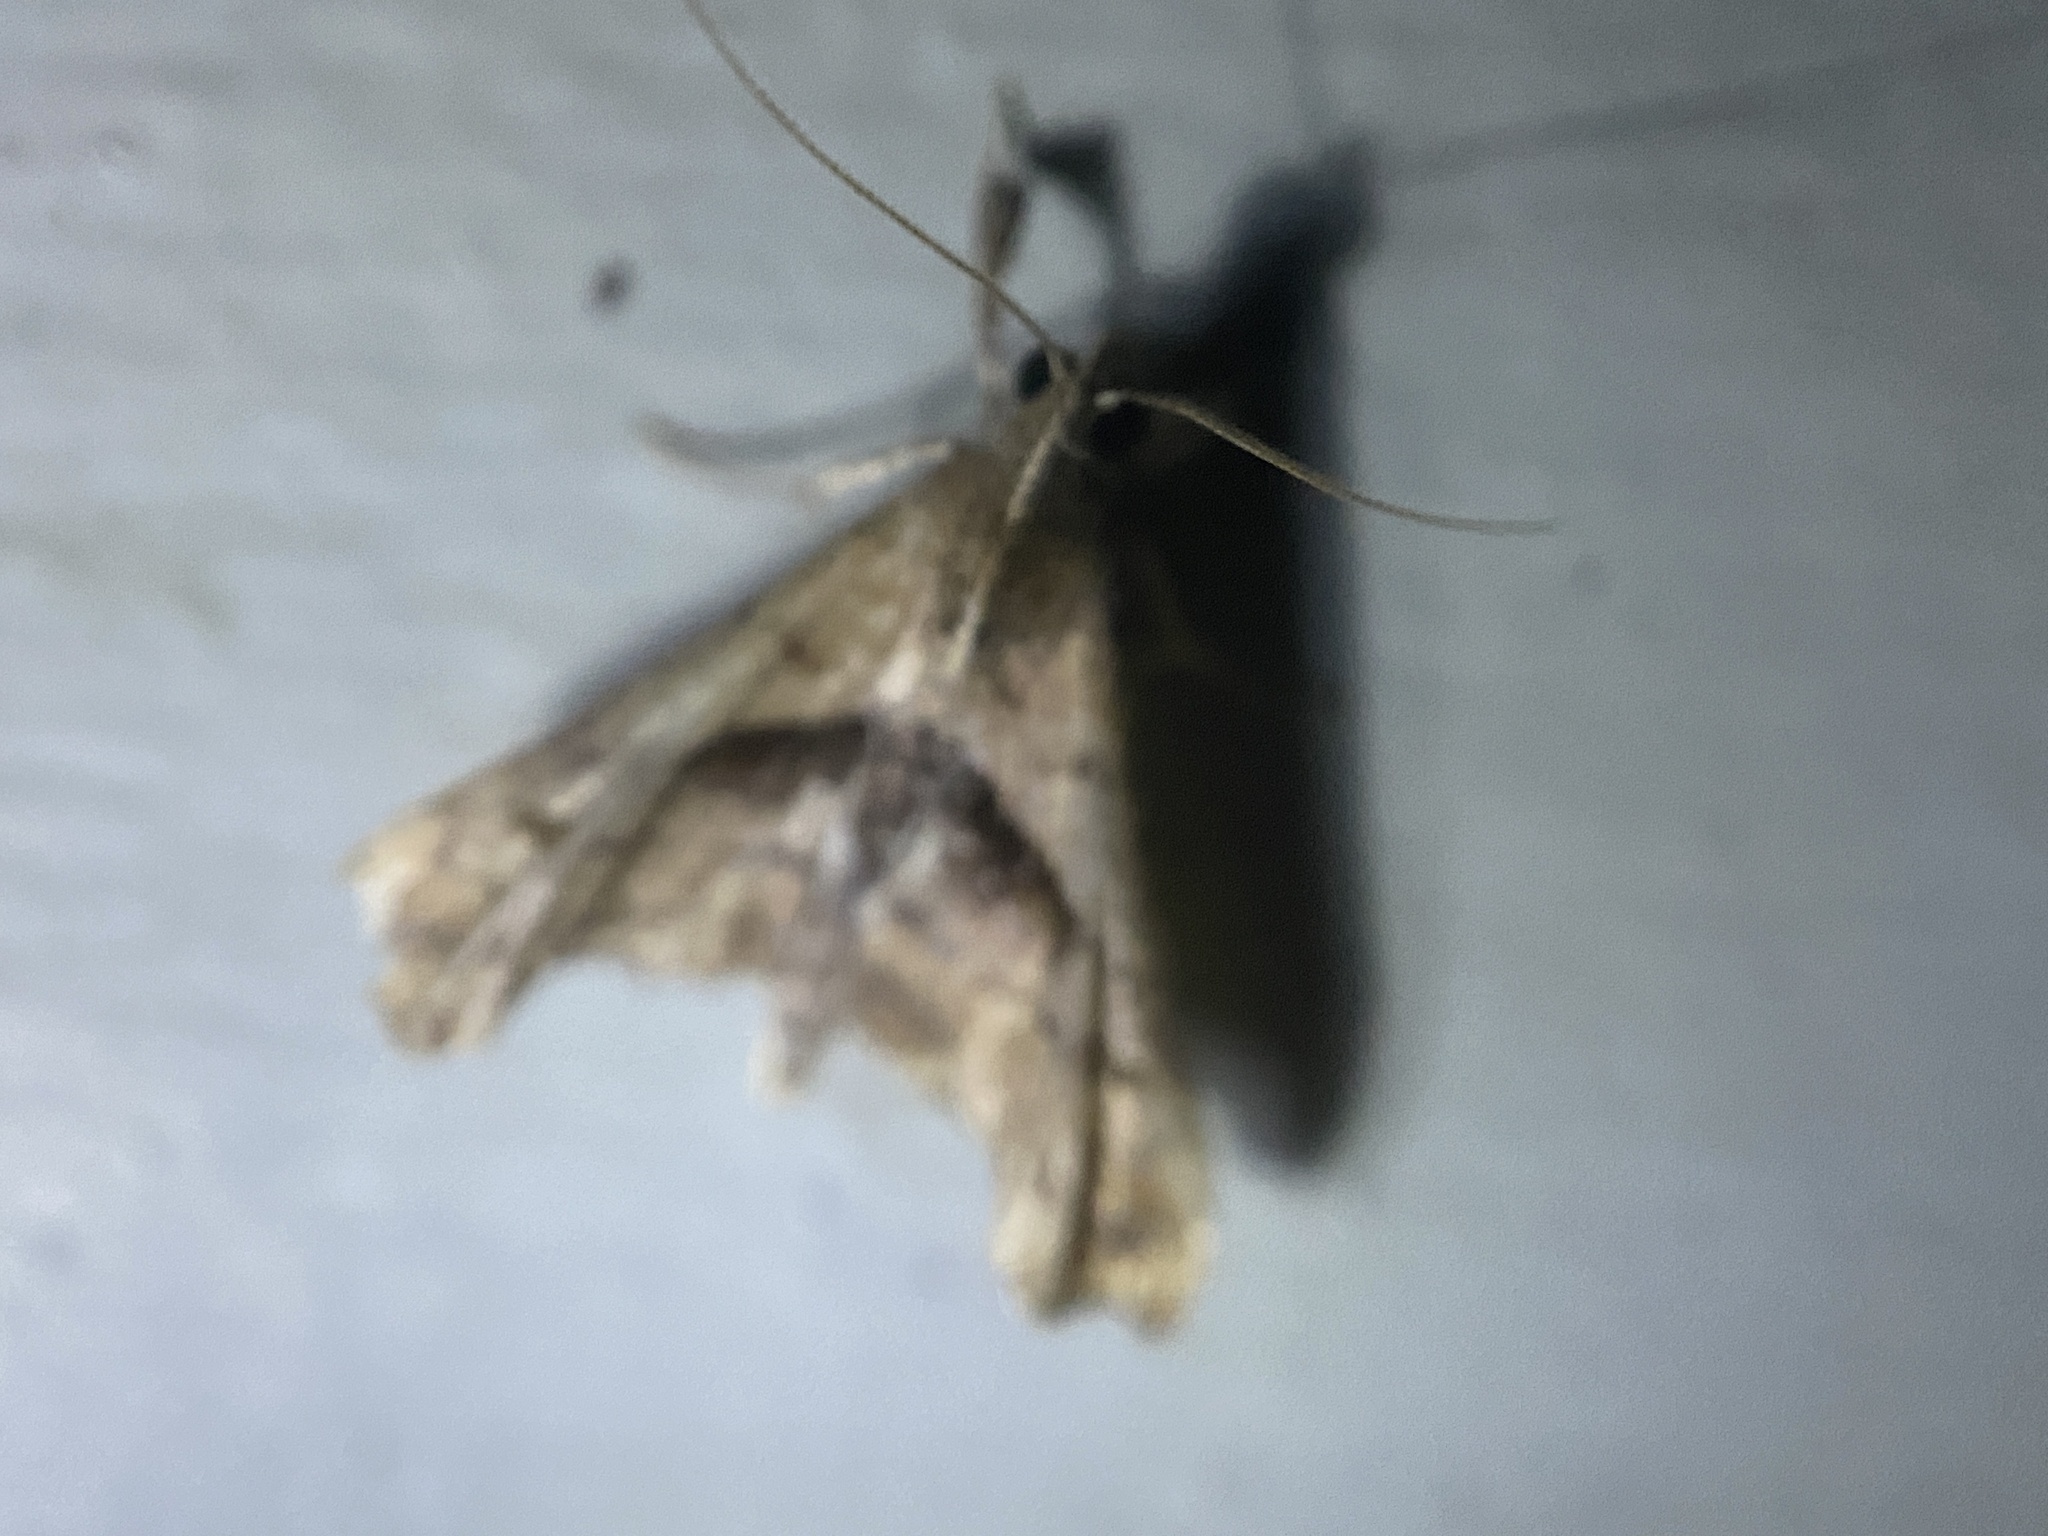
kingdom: Animalia
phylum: Arthropoda
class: Insecta
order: Lepidoptera
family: Erebidae
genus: Palthis
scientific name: Palthis angulalis
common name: Dark-spotted palthis moth
